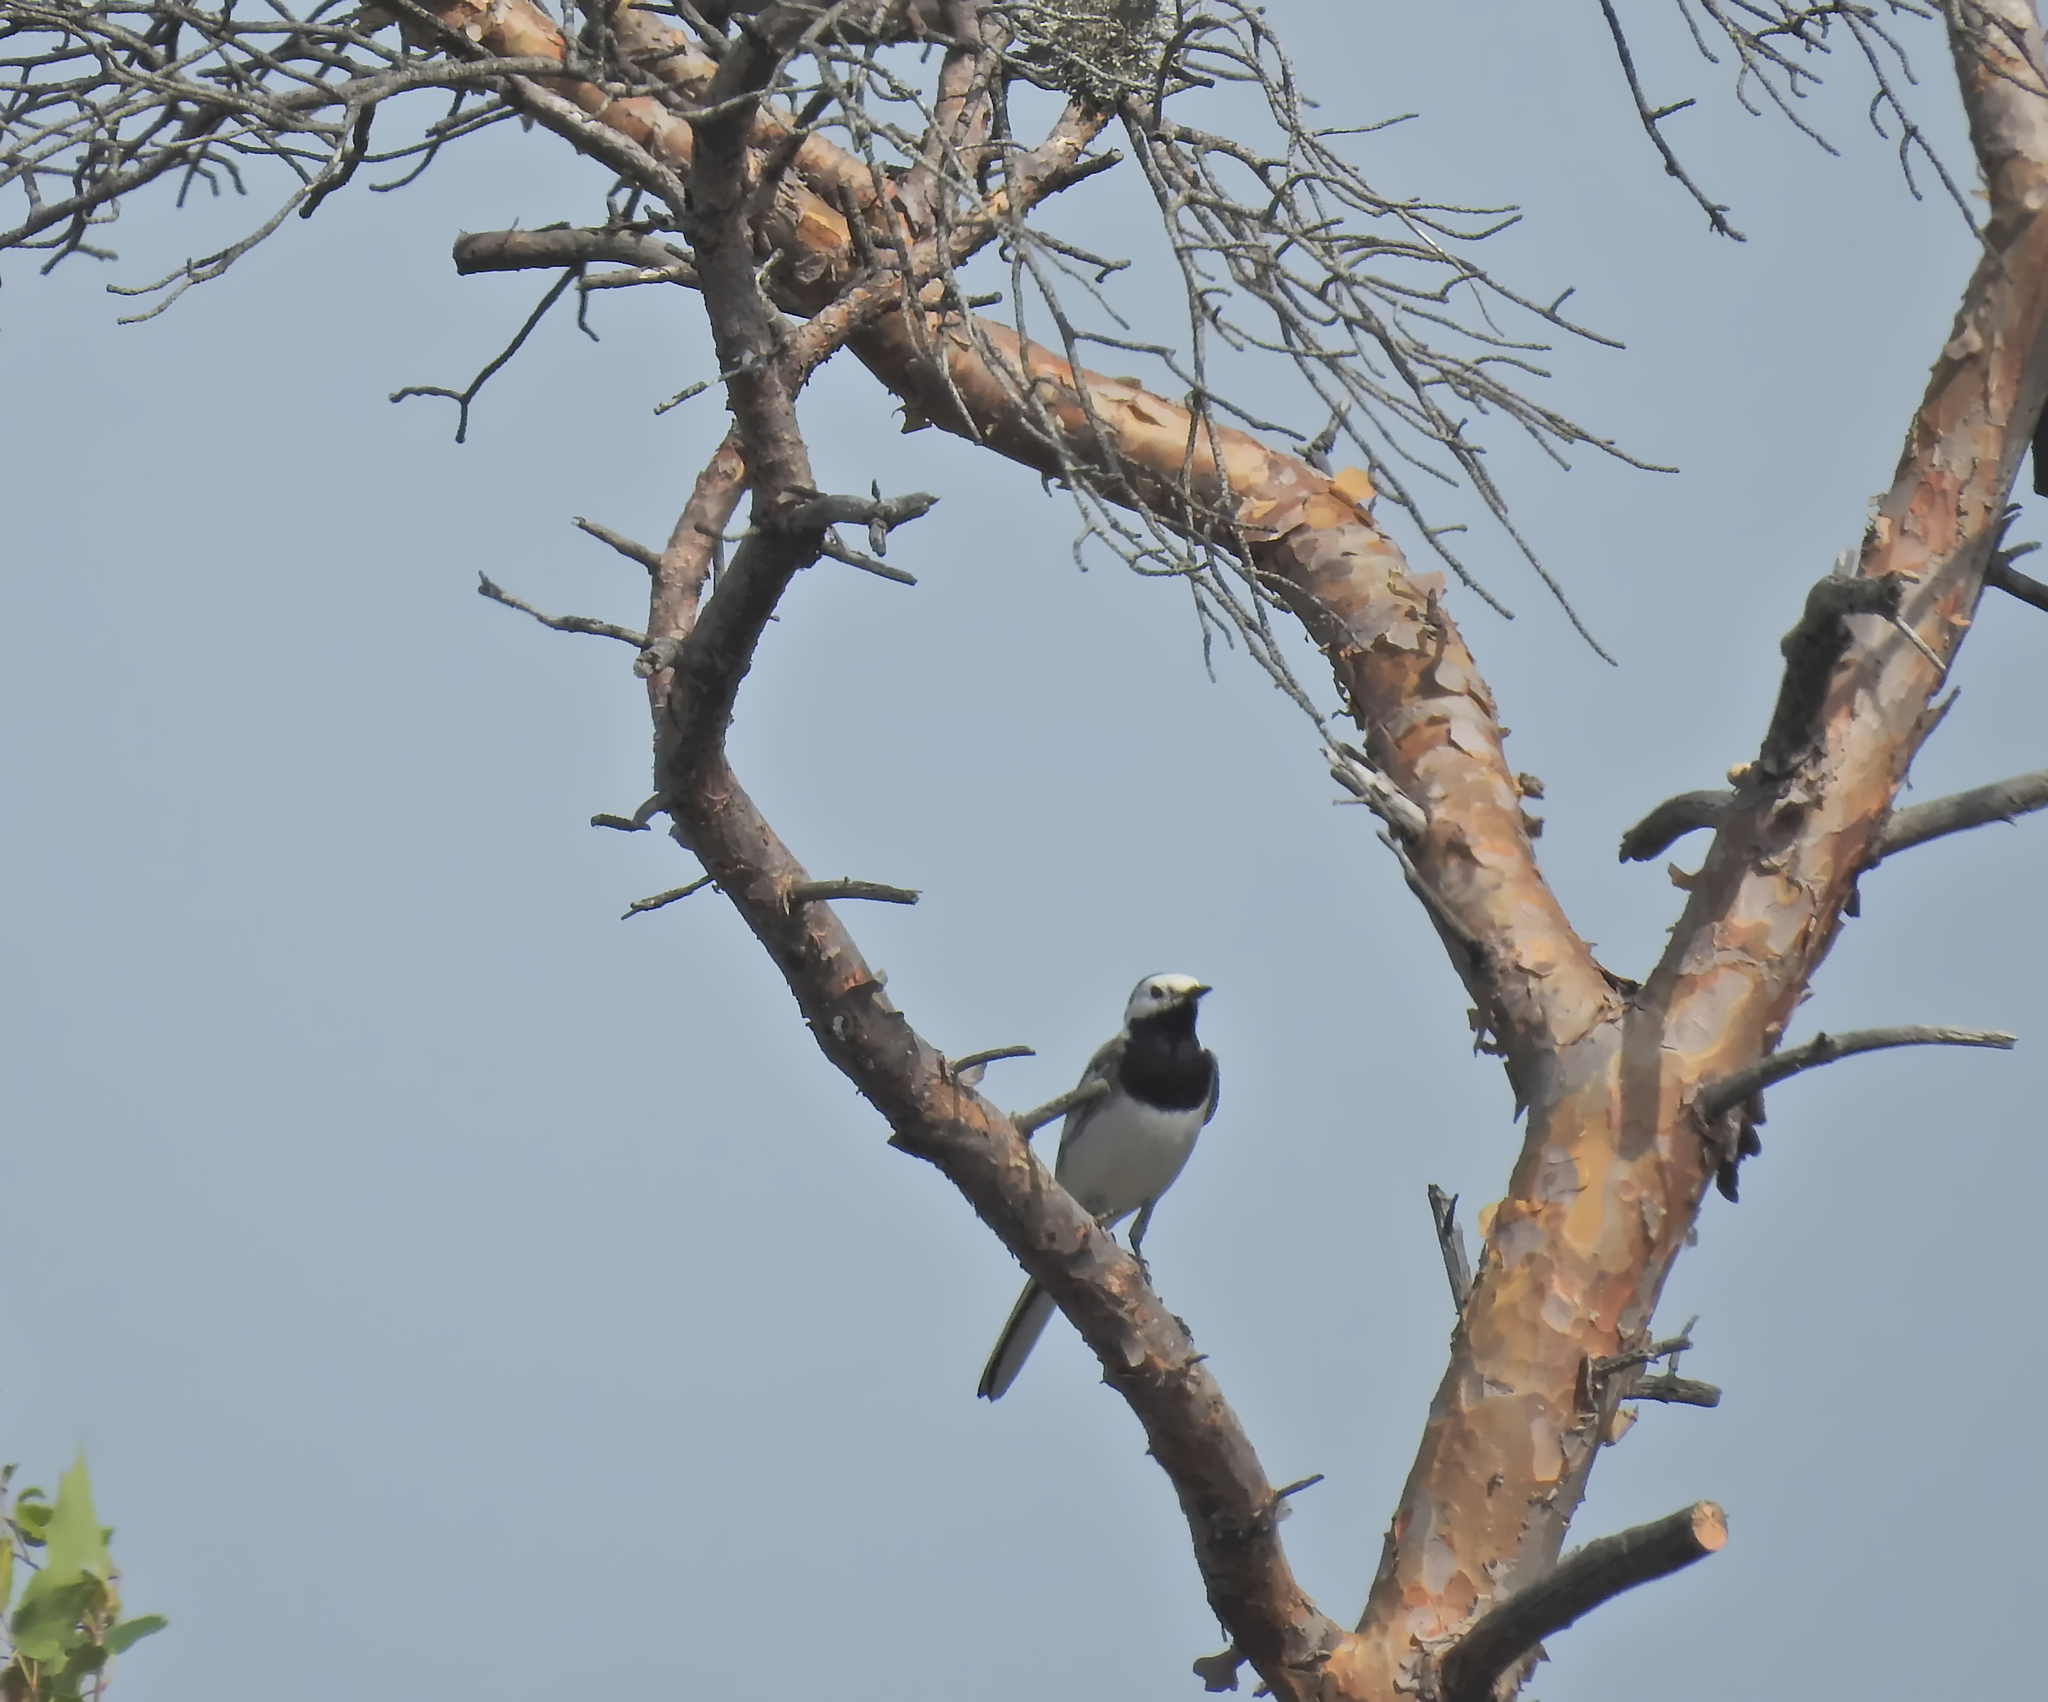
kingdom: Animalia
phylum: Chordata
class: Aves
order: Passeriformes
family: Motacillidae
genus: Motacilla
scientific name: Motacilla alba
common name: White wagtail
